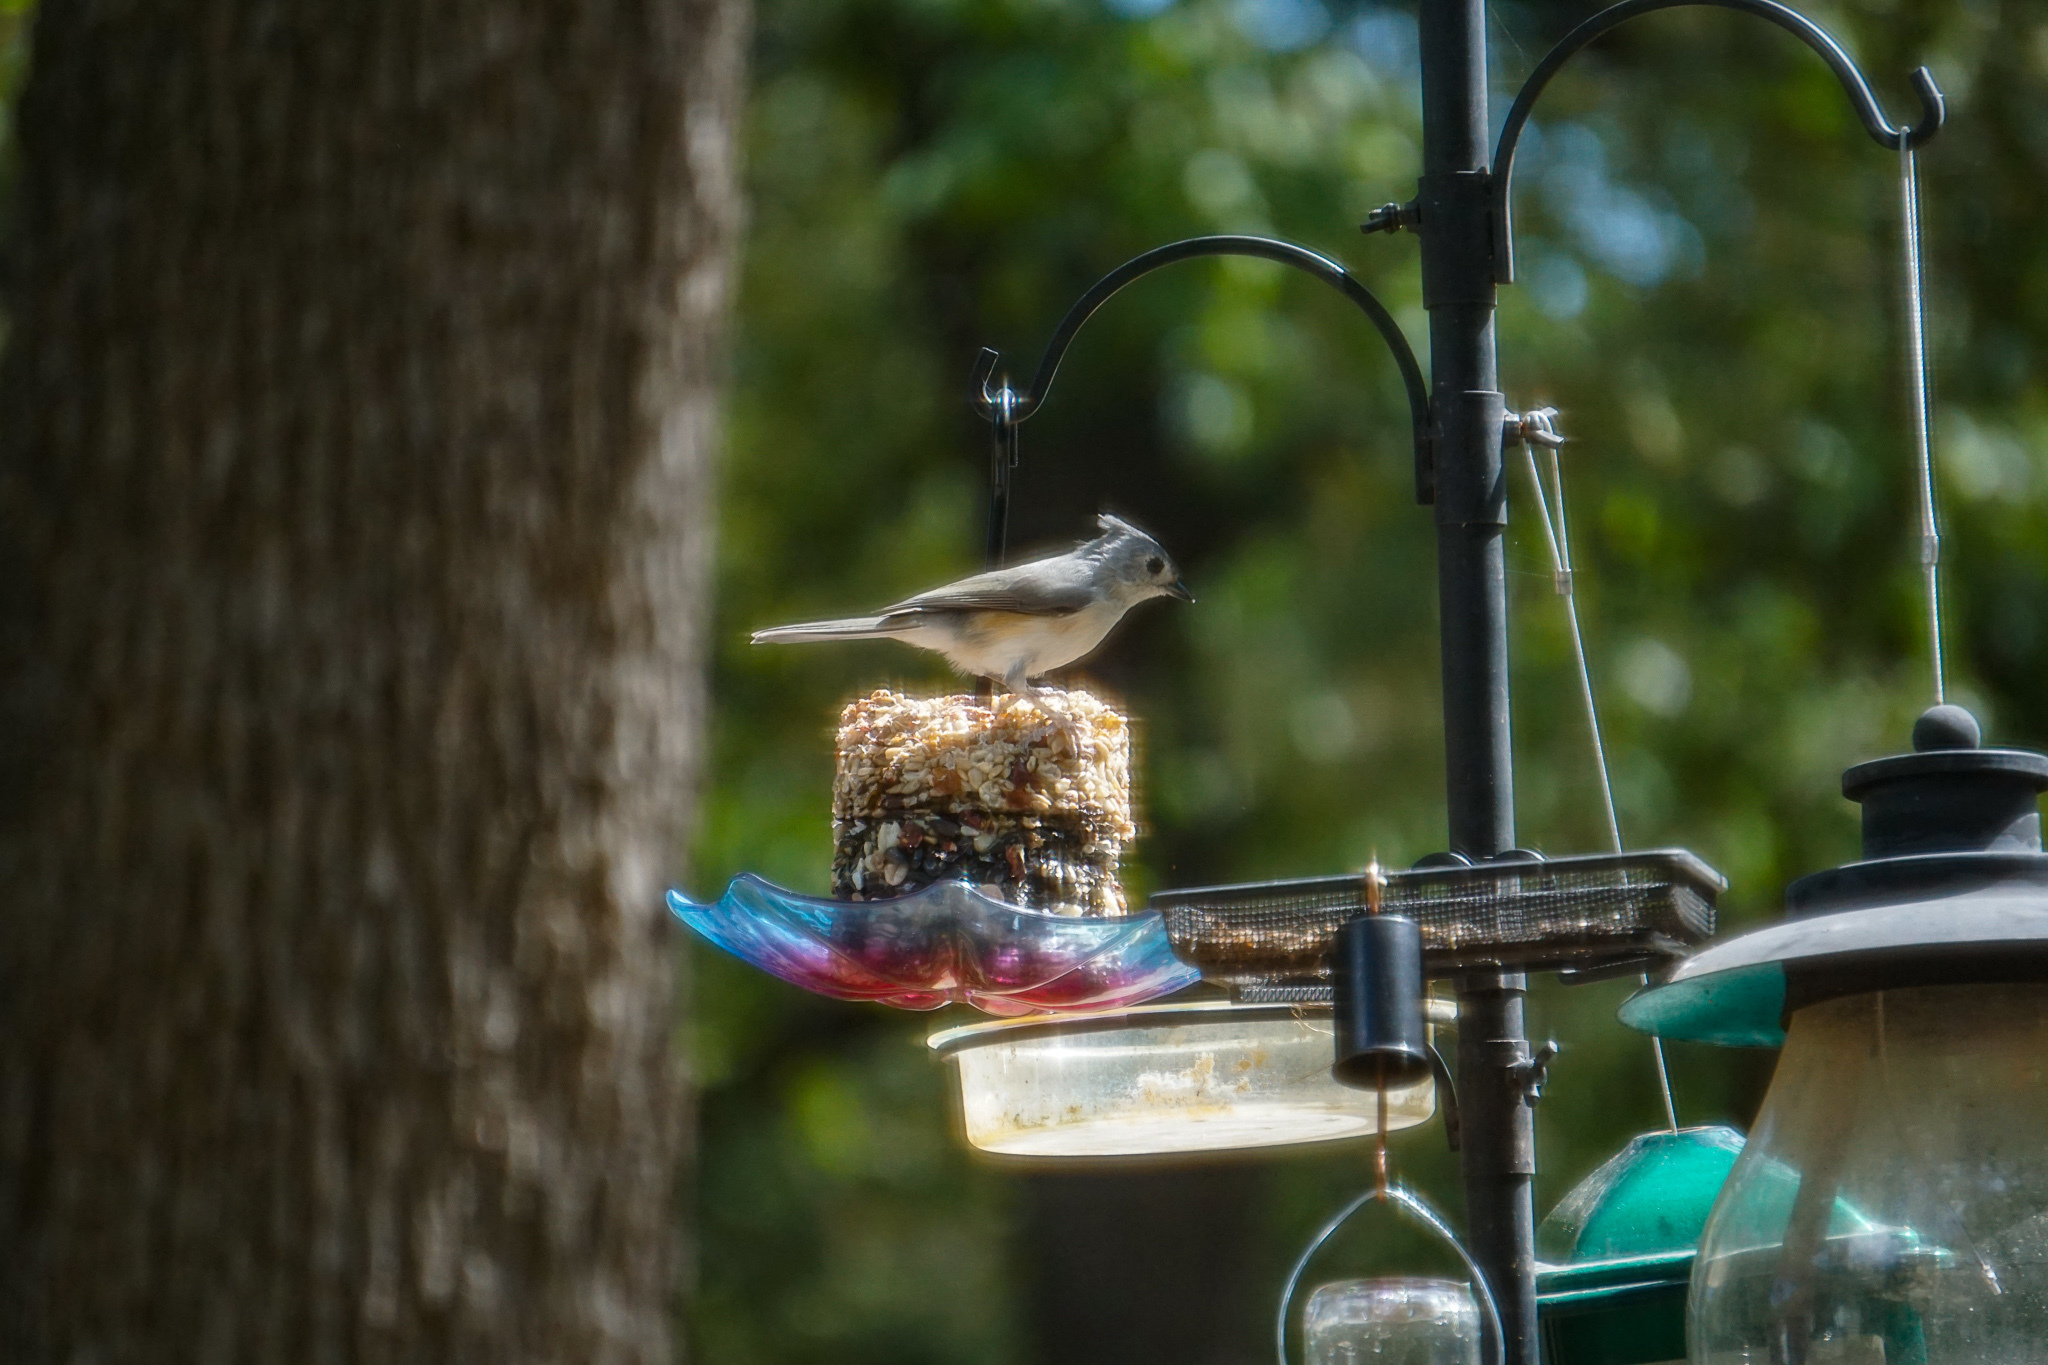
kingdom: Animalia
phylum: Chordata
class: Aves
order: Passeriformes
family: Paridae
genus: Baeolophus
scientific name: Baeolophus bicolor
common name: Tufted titmouse
